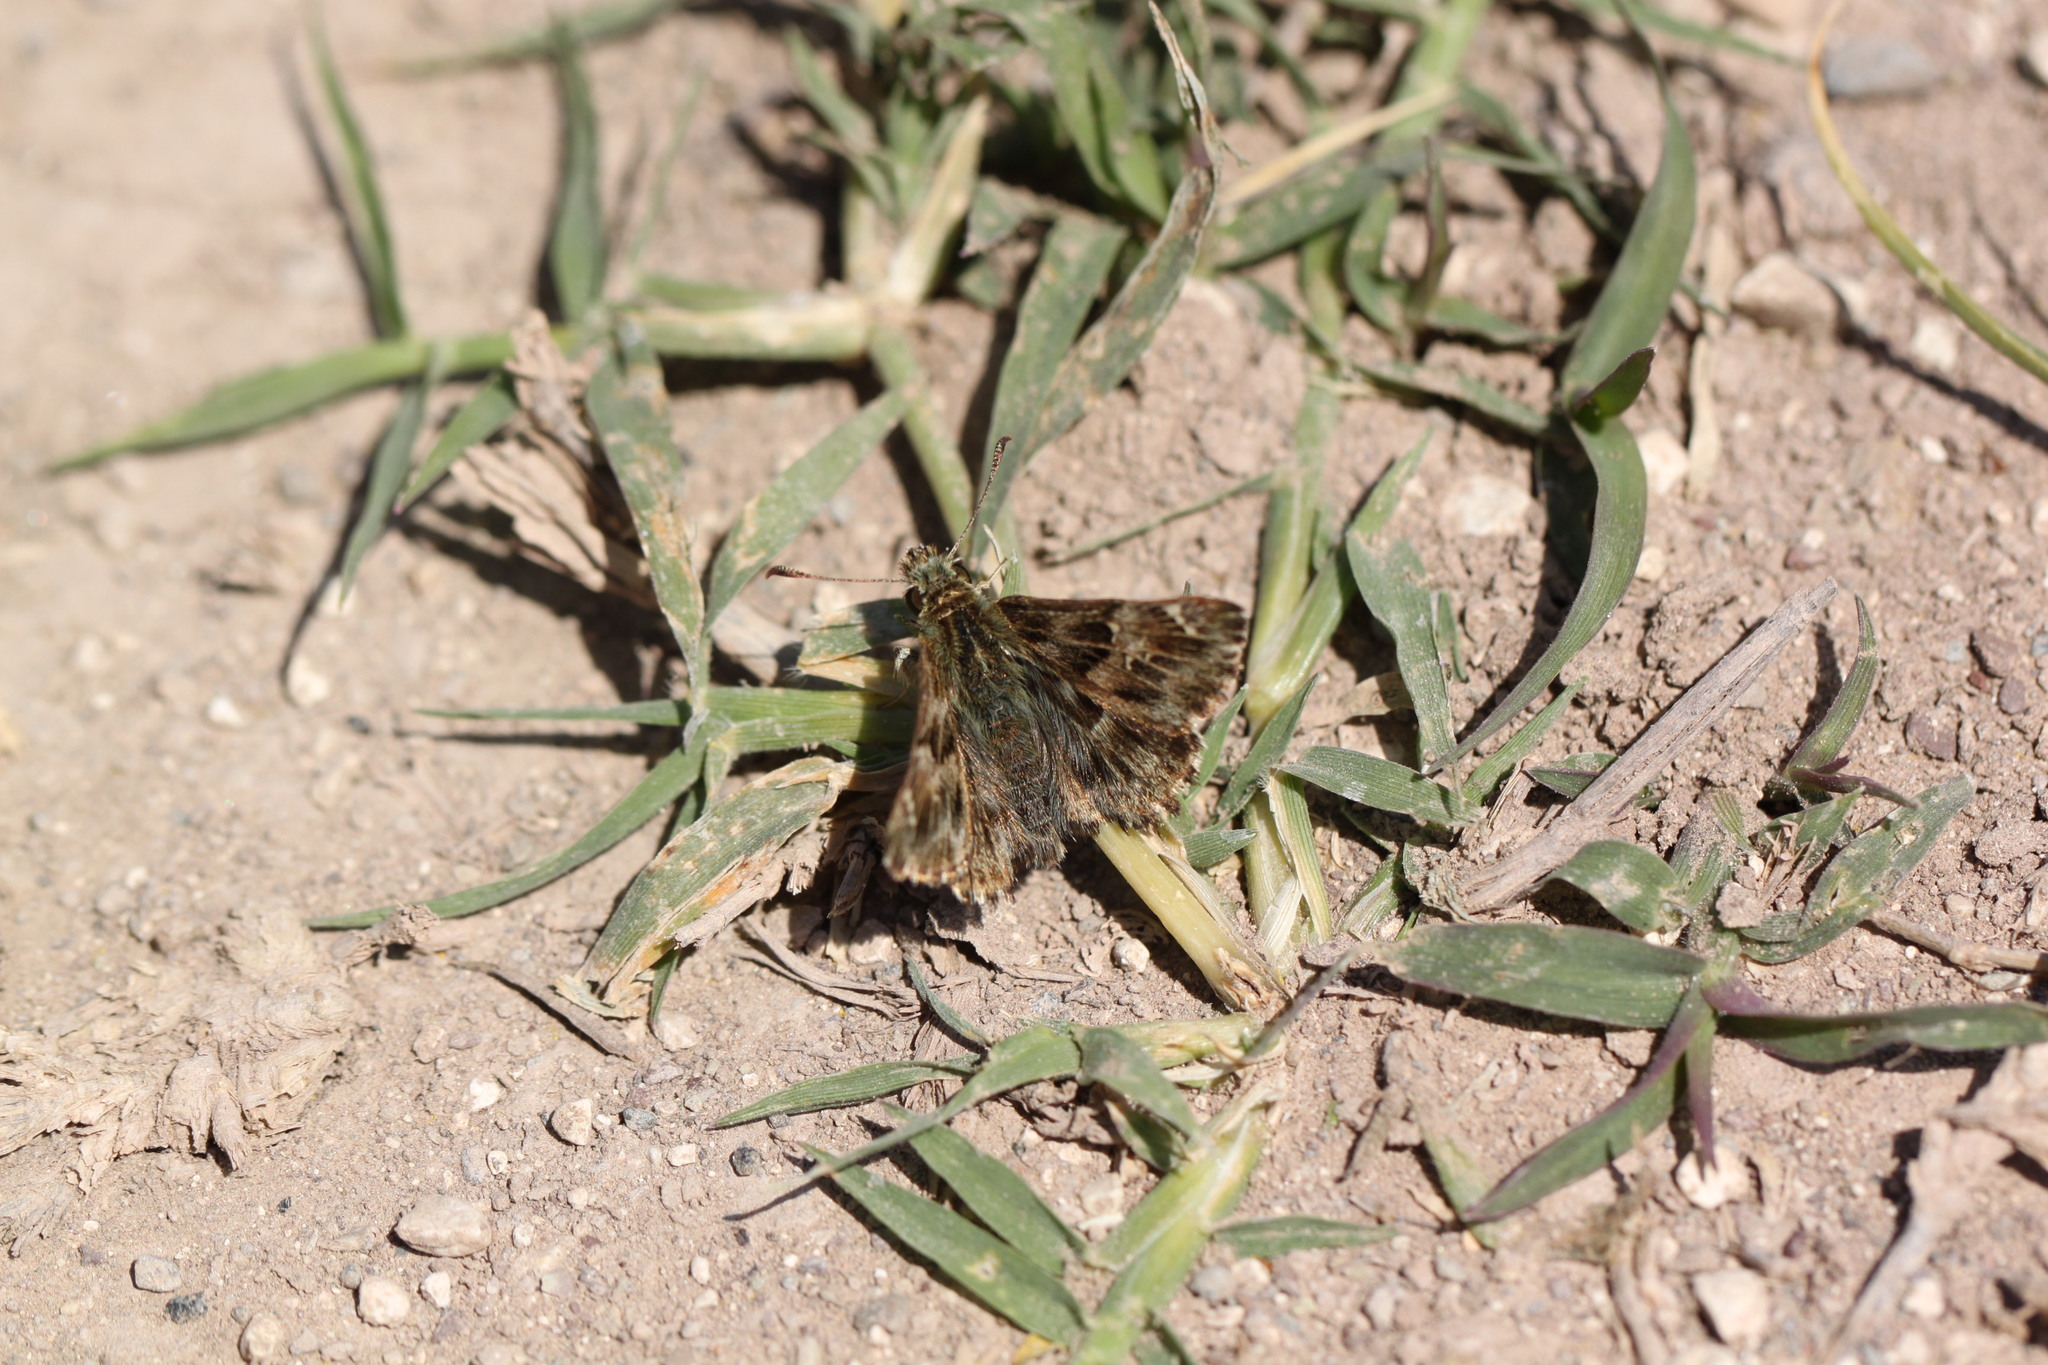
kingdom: Animalia
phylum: Arthropoda
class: Insecta
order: Lepidoptera
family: Hesperiidae
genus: Carcharodus
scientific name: Carcharodus alceae
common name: Mallow skipper
